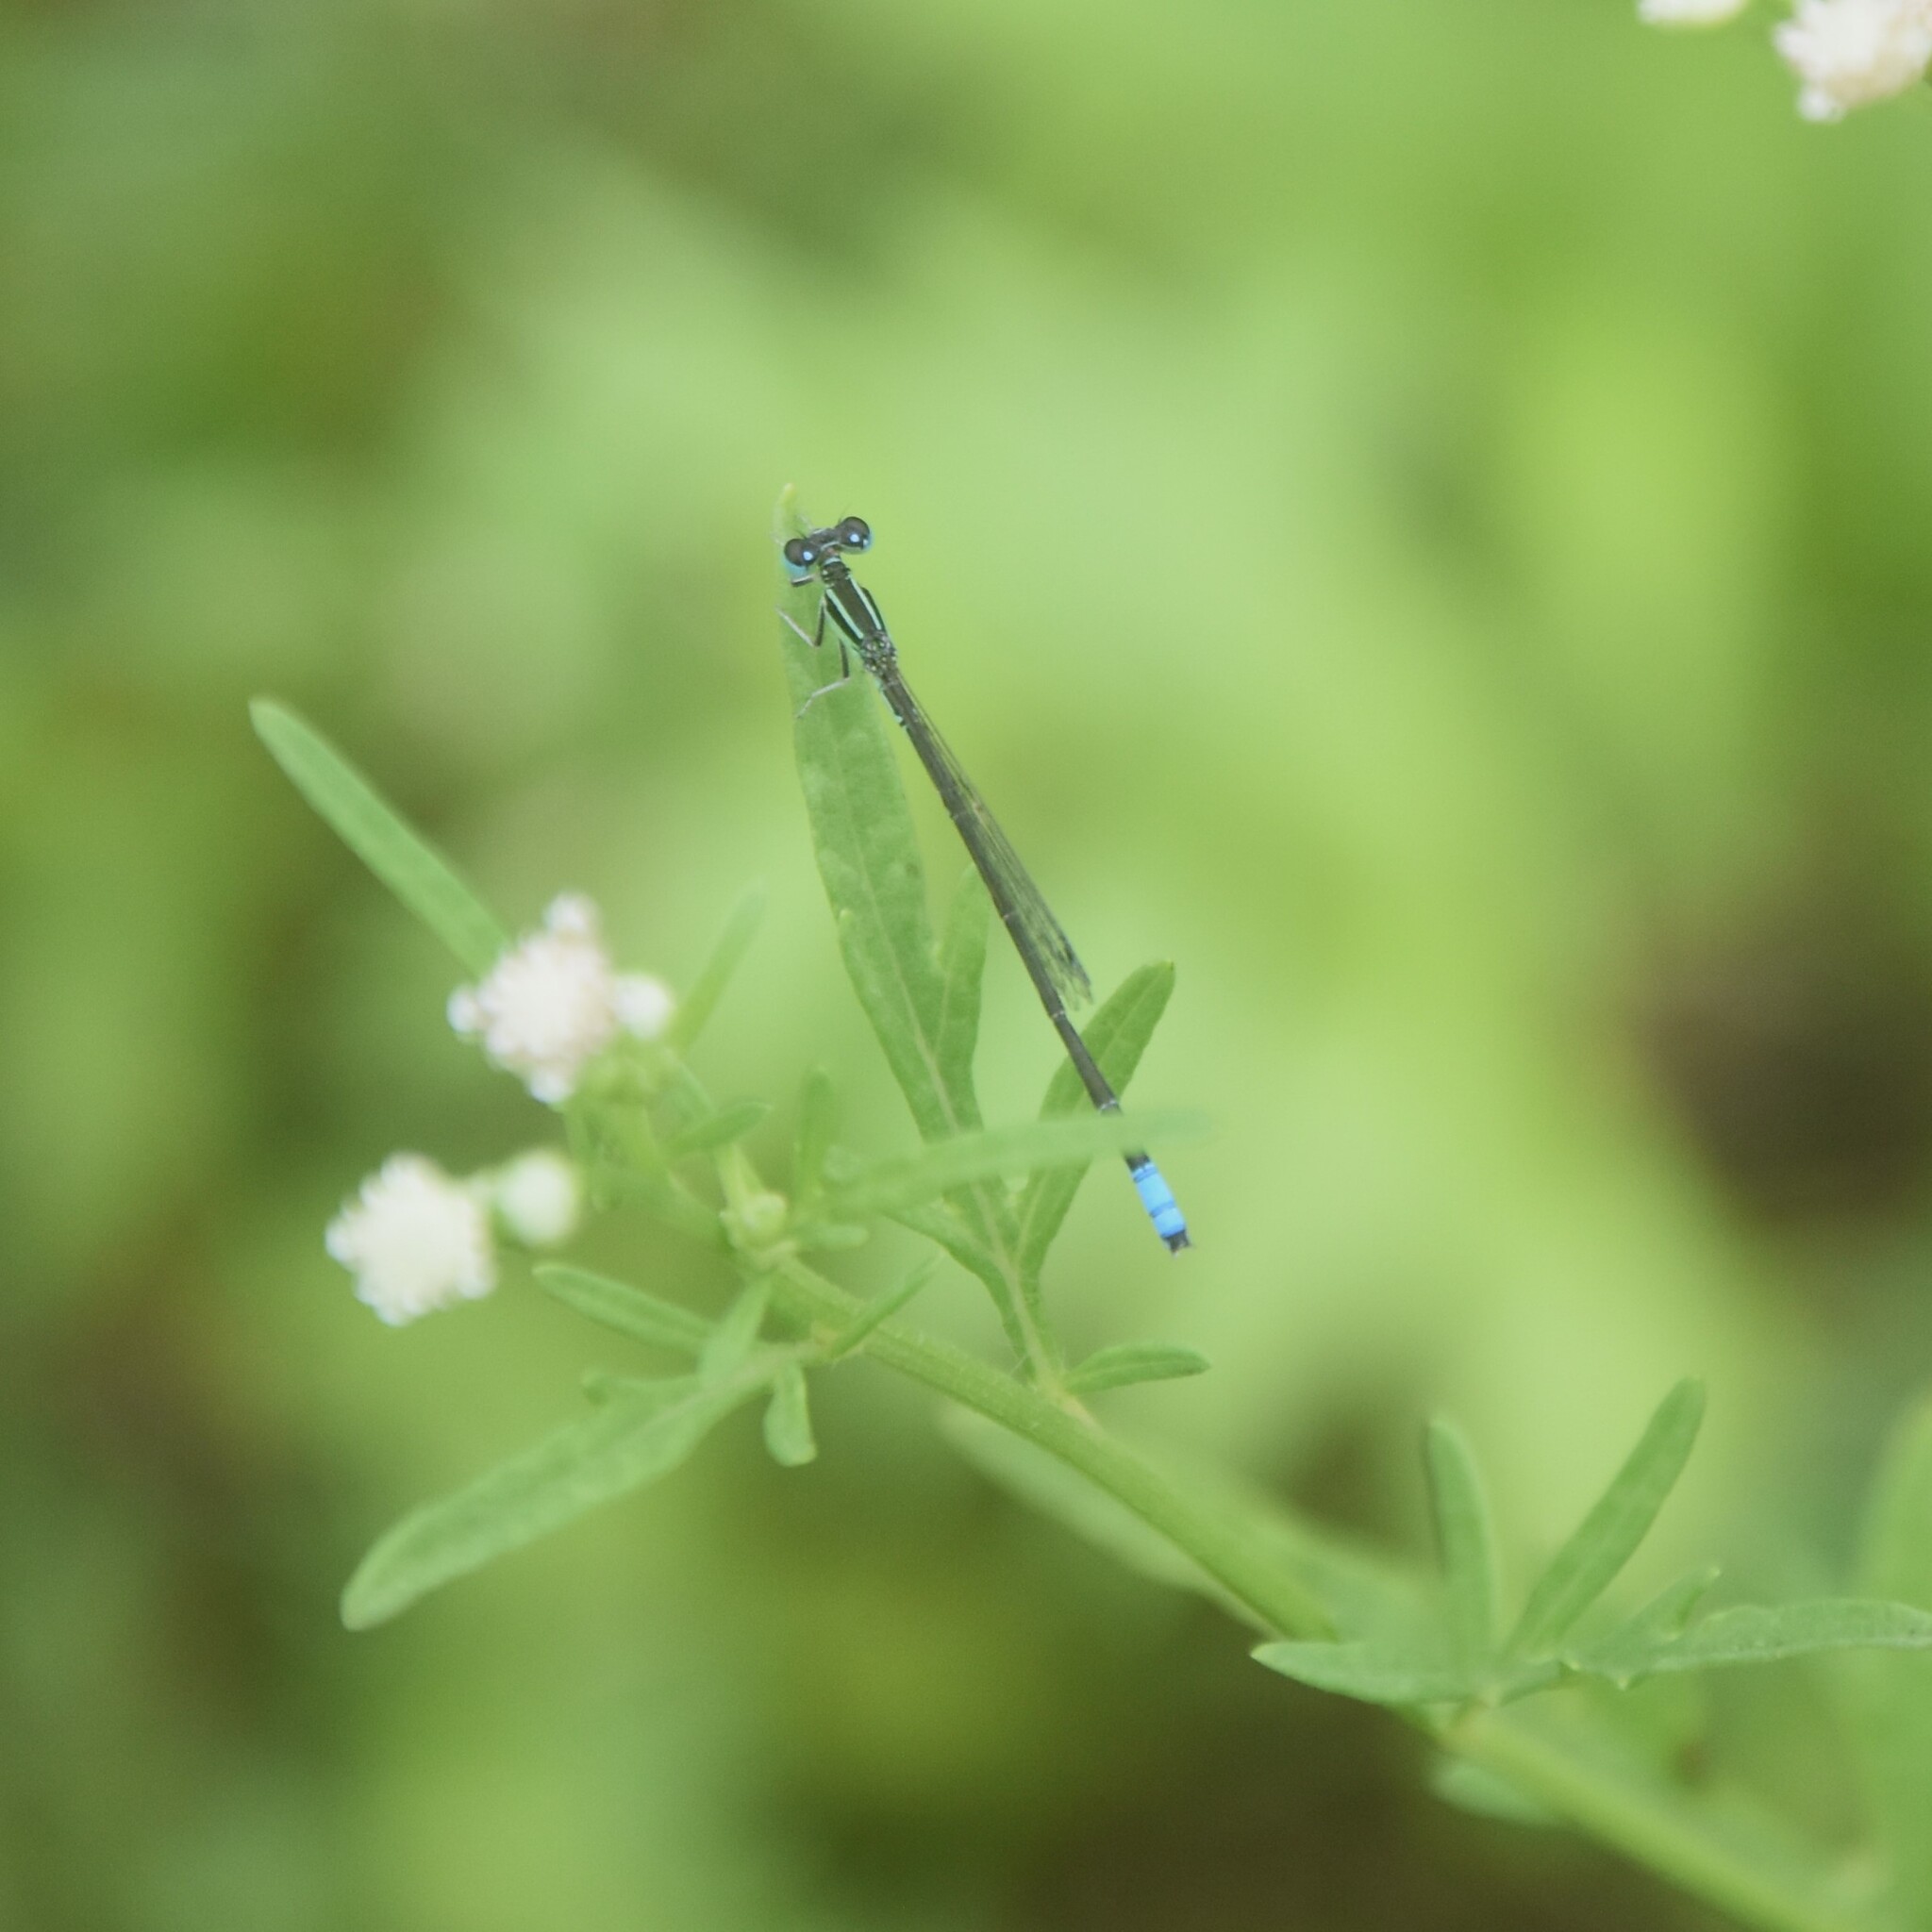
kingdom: Animalia
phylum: Arthropoda
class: Insecta
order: Odonata
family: Coenagrionidae
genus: Ischnura
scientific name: Ischnura forcipata
